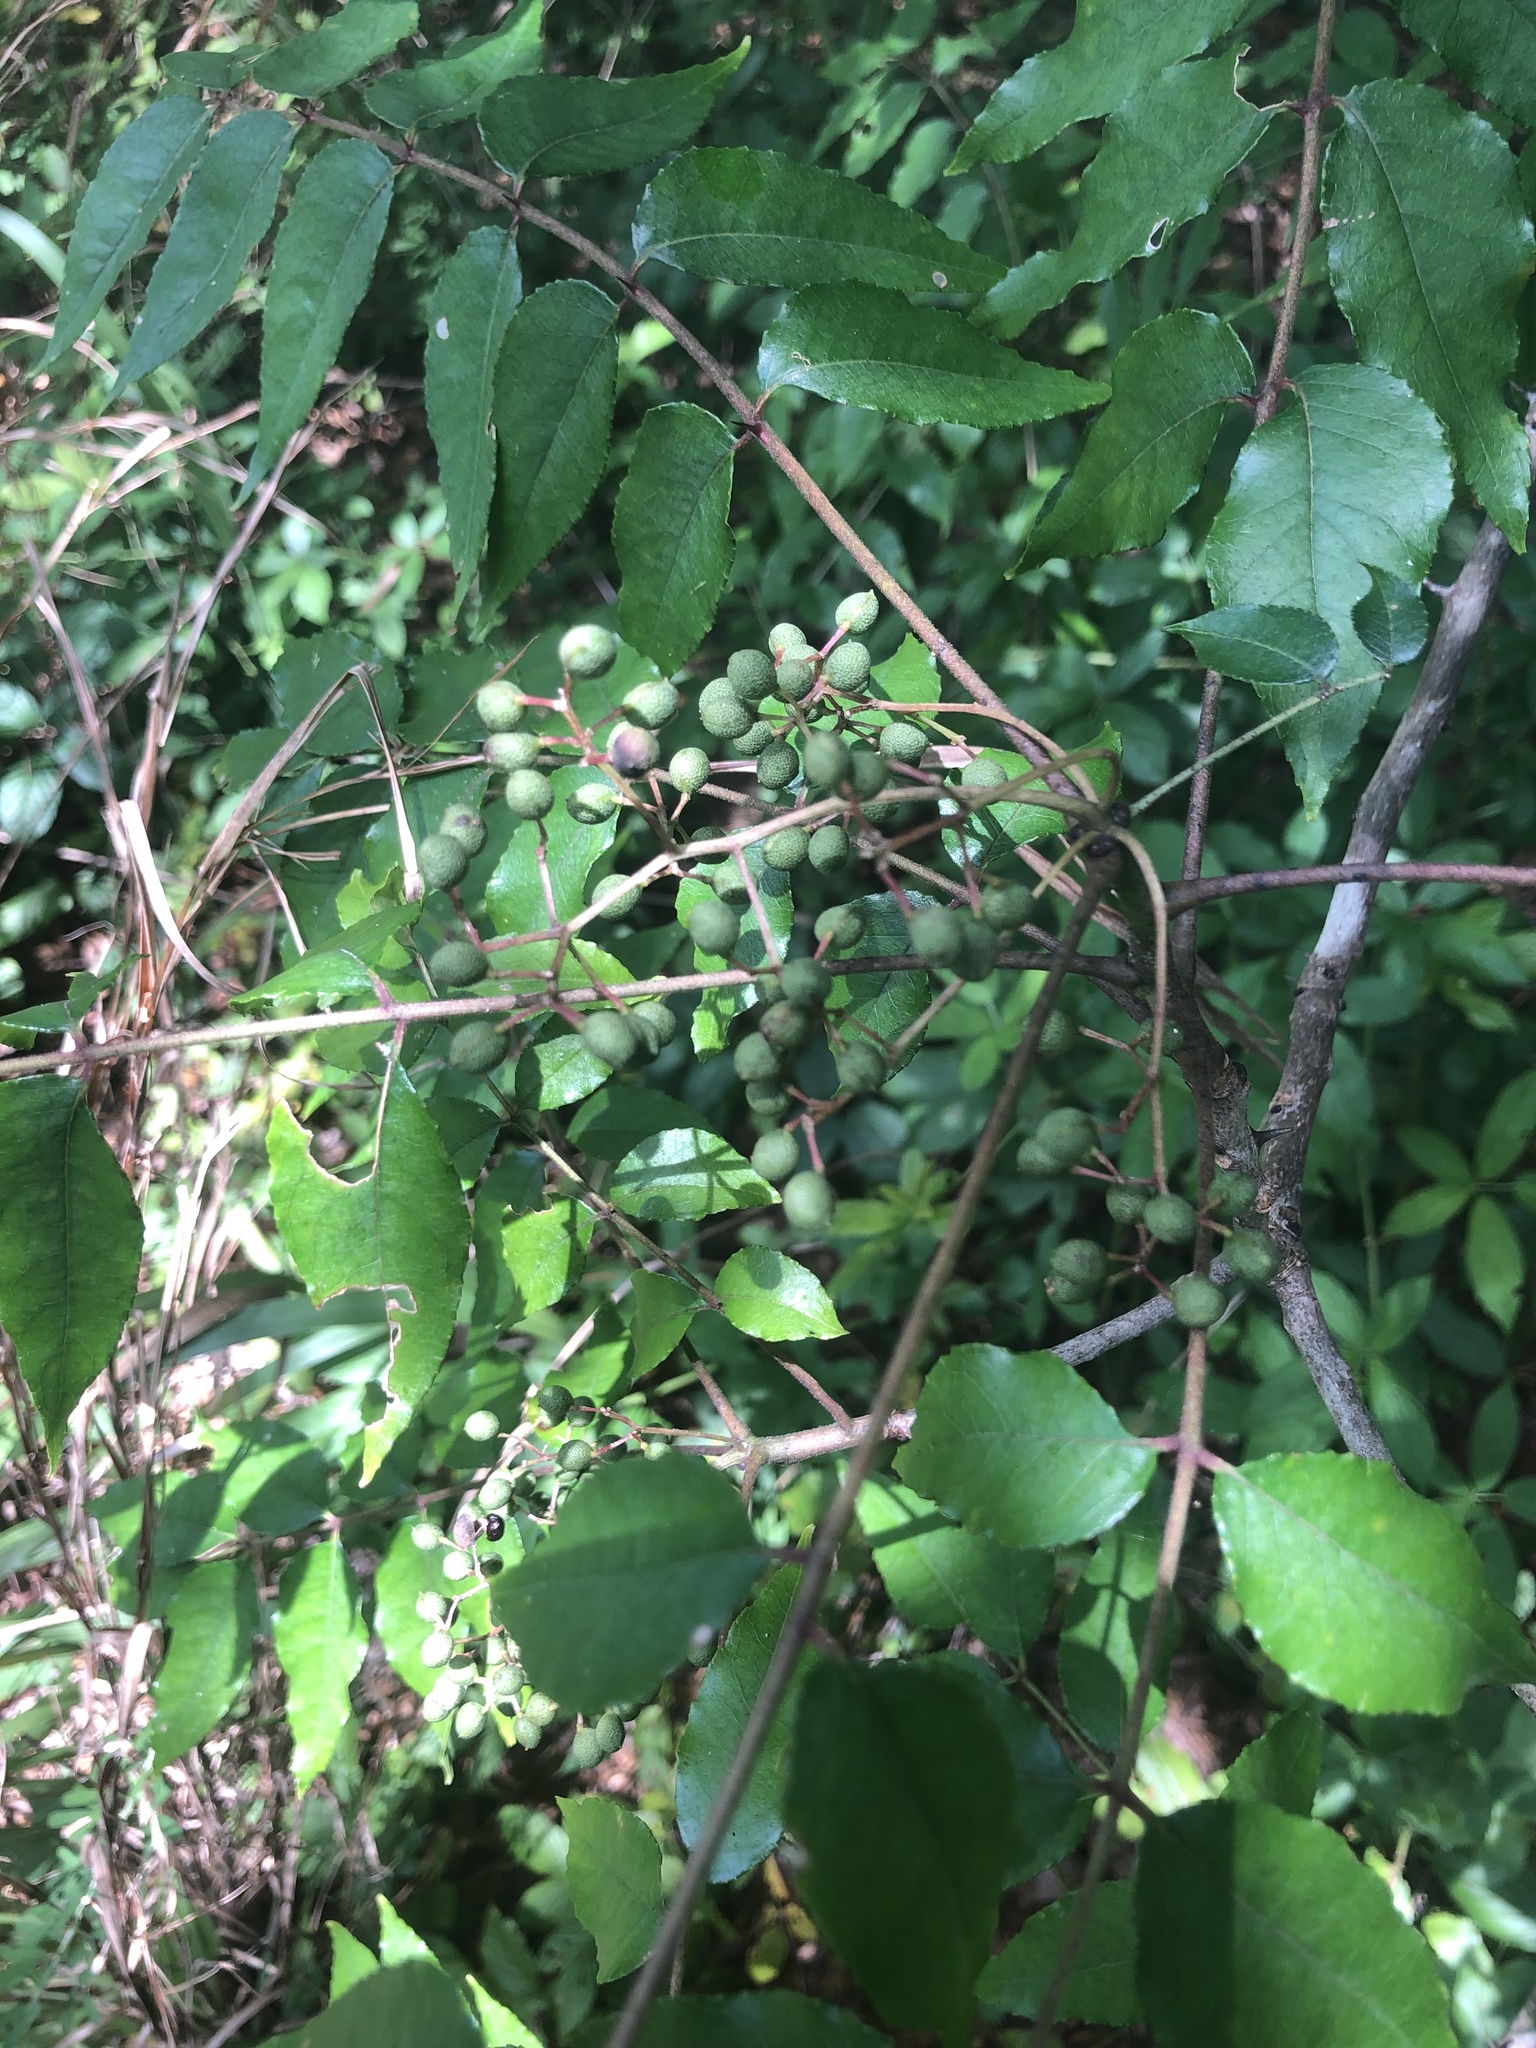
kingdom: Plantae
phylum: Tracheophyta
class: Magnoliopsida
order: Sapindales
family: Rutaceae
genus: Zanthoxylum
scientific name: Zanthoxylum clava-herculis
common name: Hercules'-club
